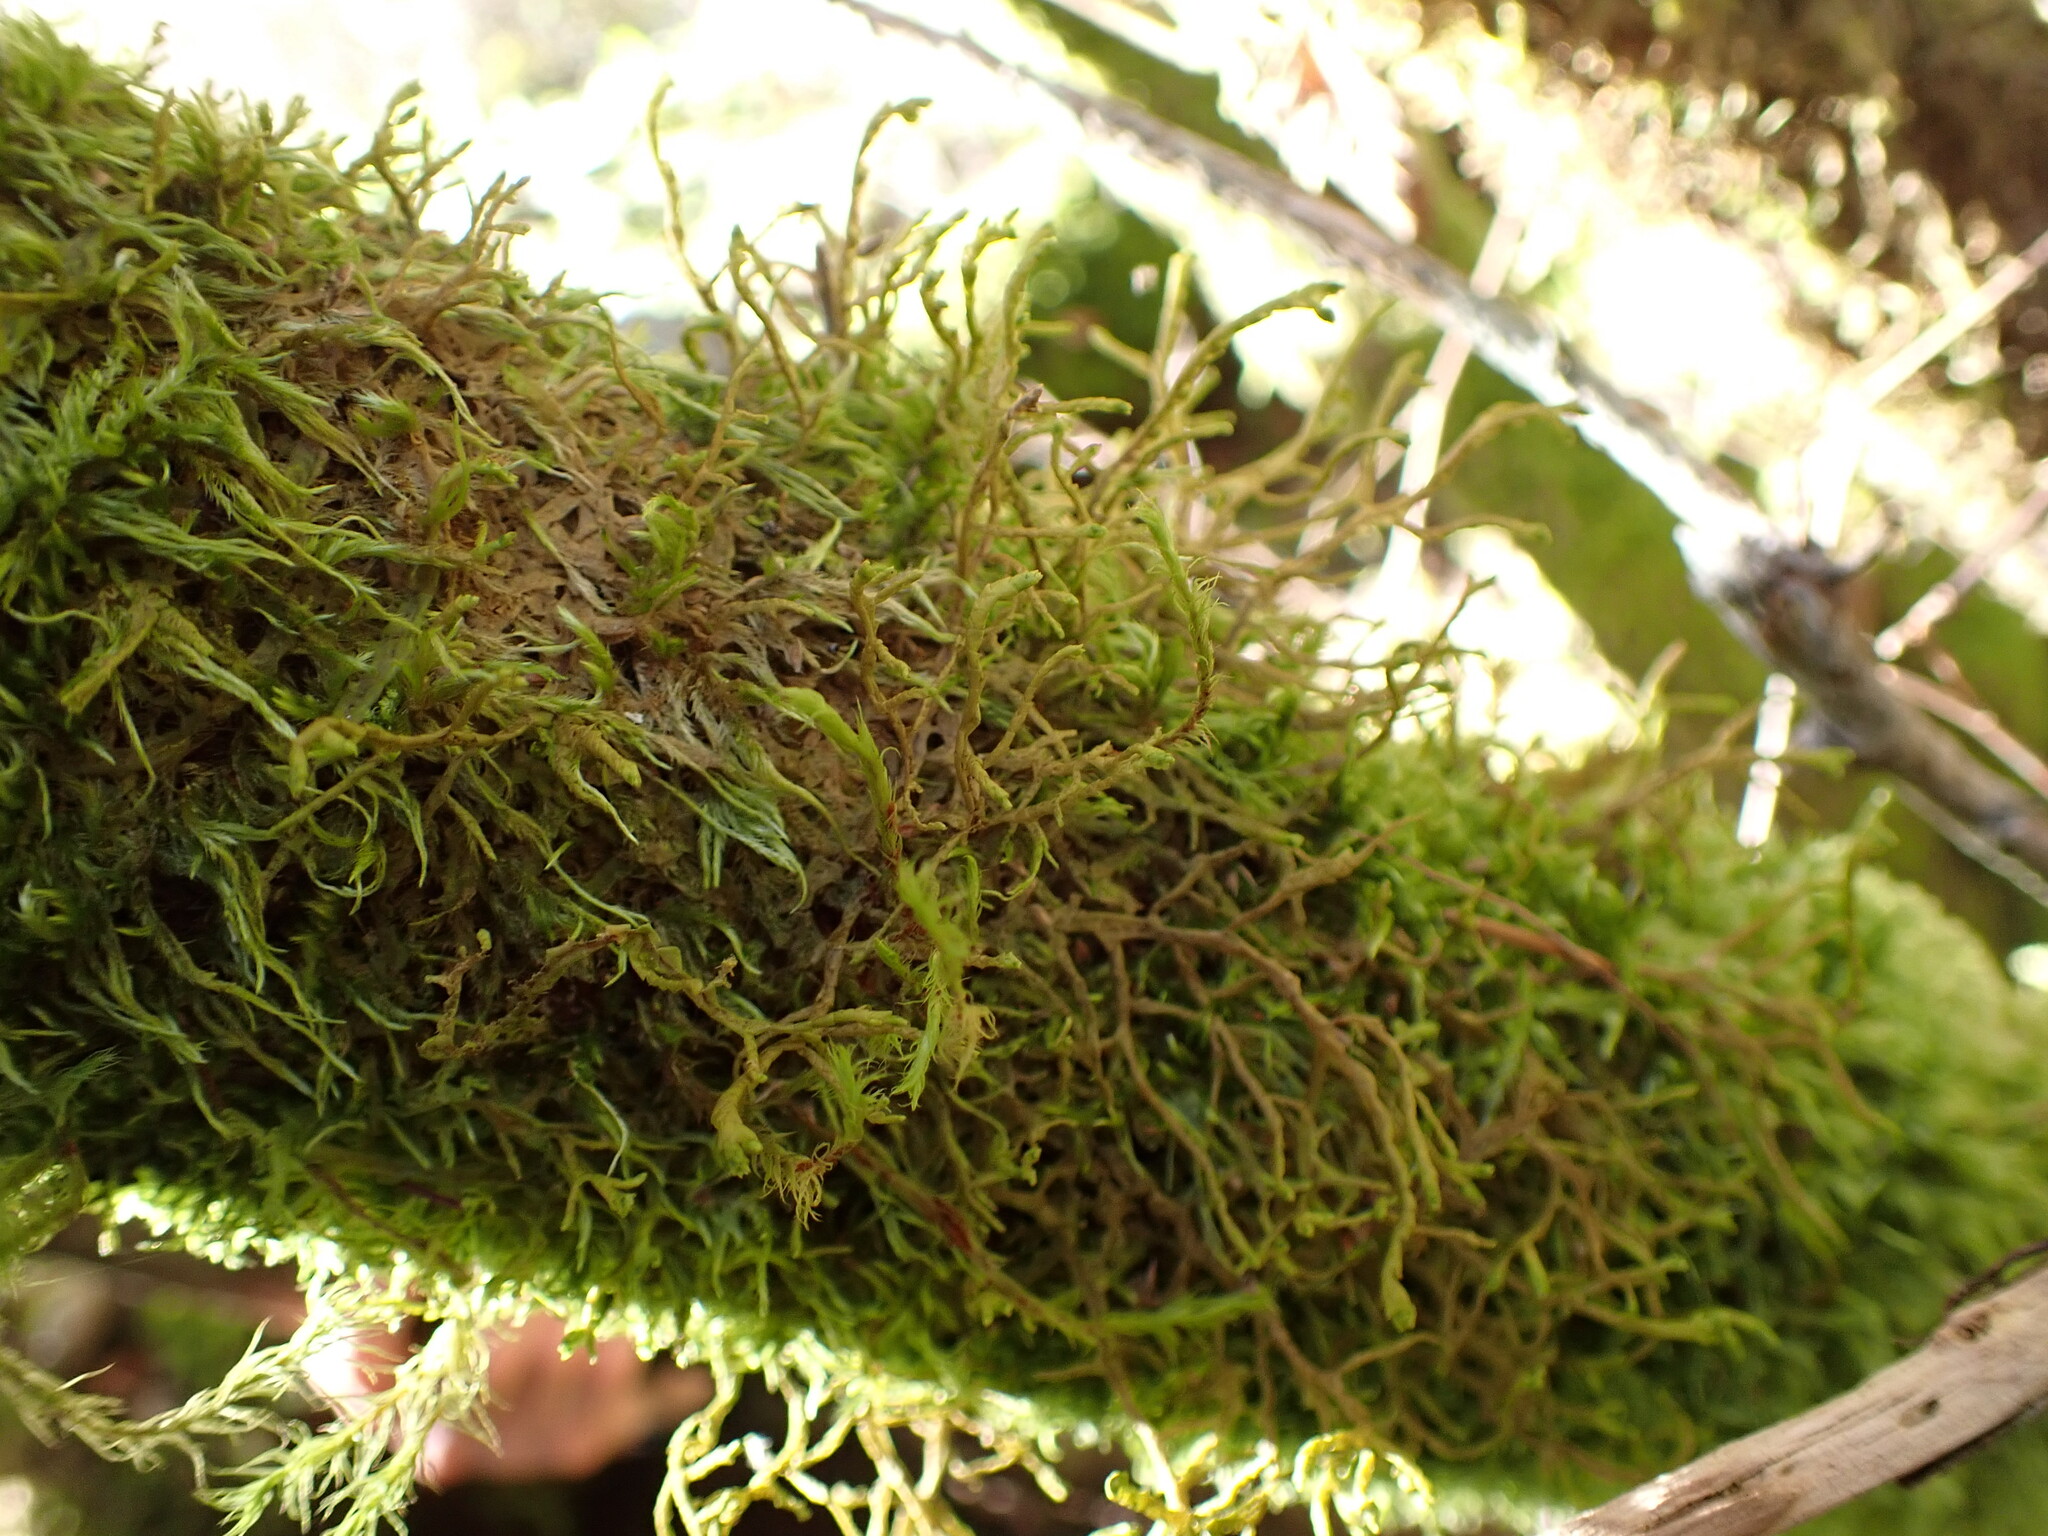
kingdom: Plantae
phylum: Marchantiophyta
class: Jungermanniopsida
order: Porellales
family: Porellaceae
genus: Porella
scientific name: Porella navicularis
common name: Tree ruffle liverwort
